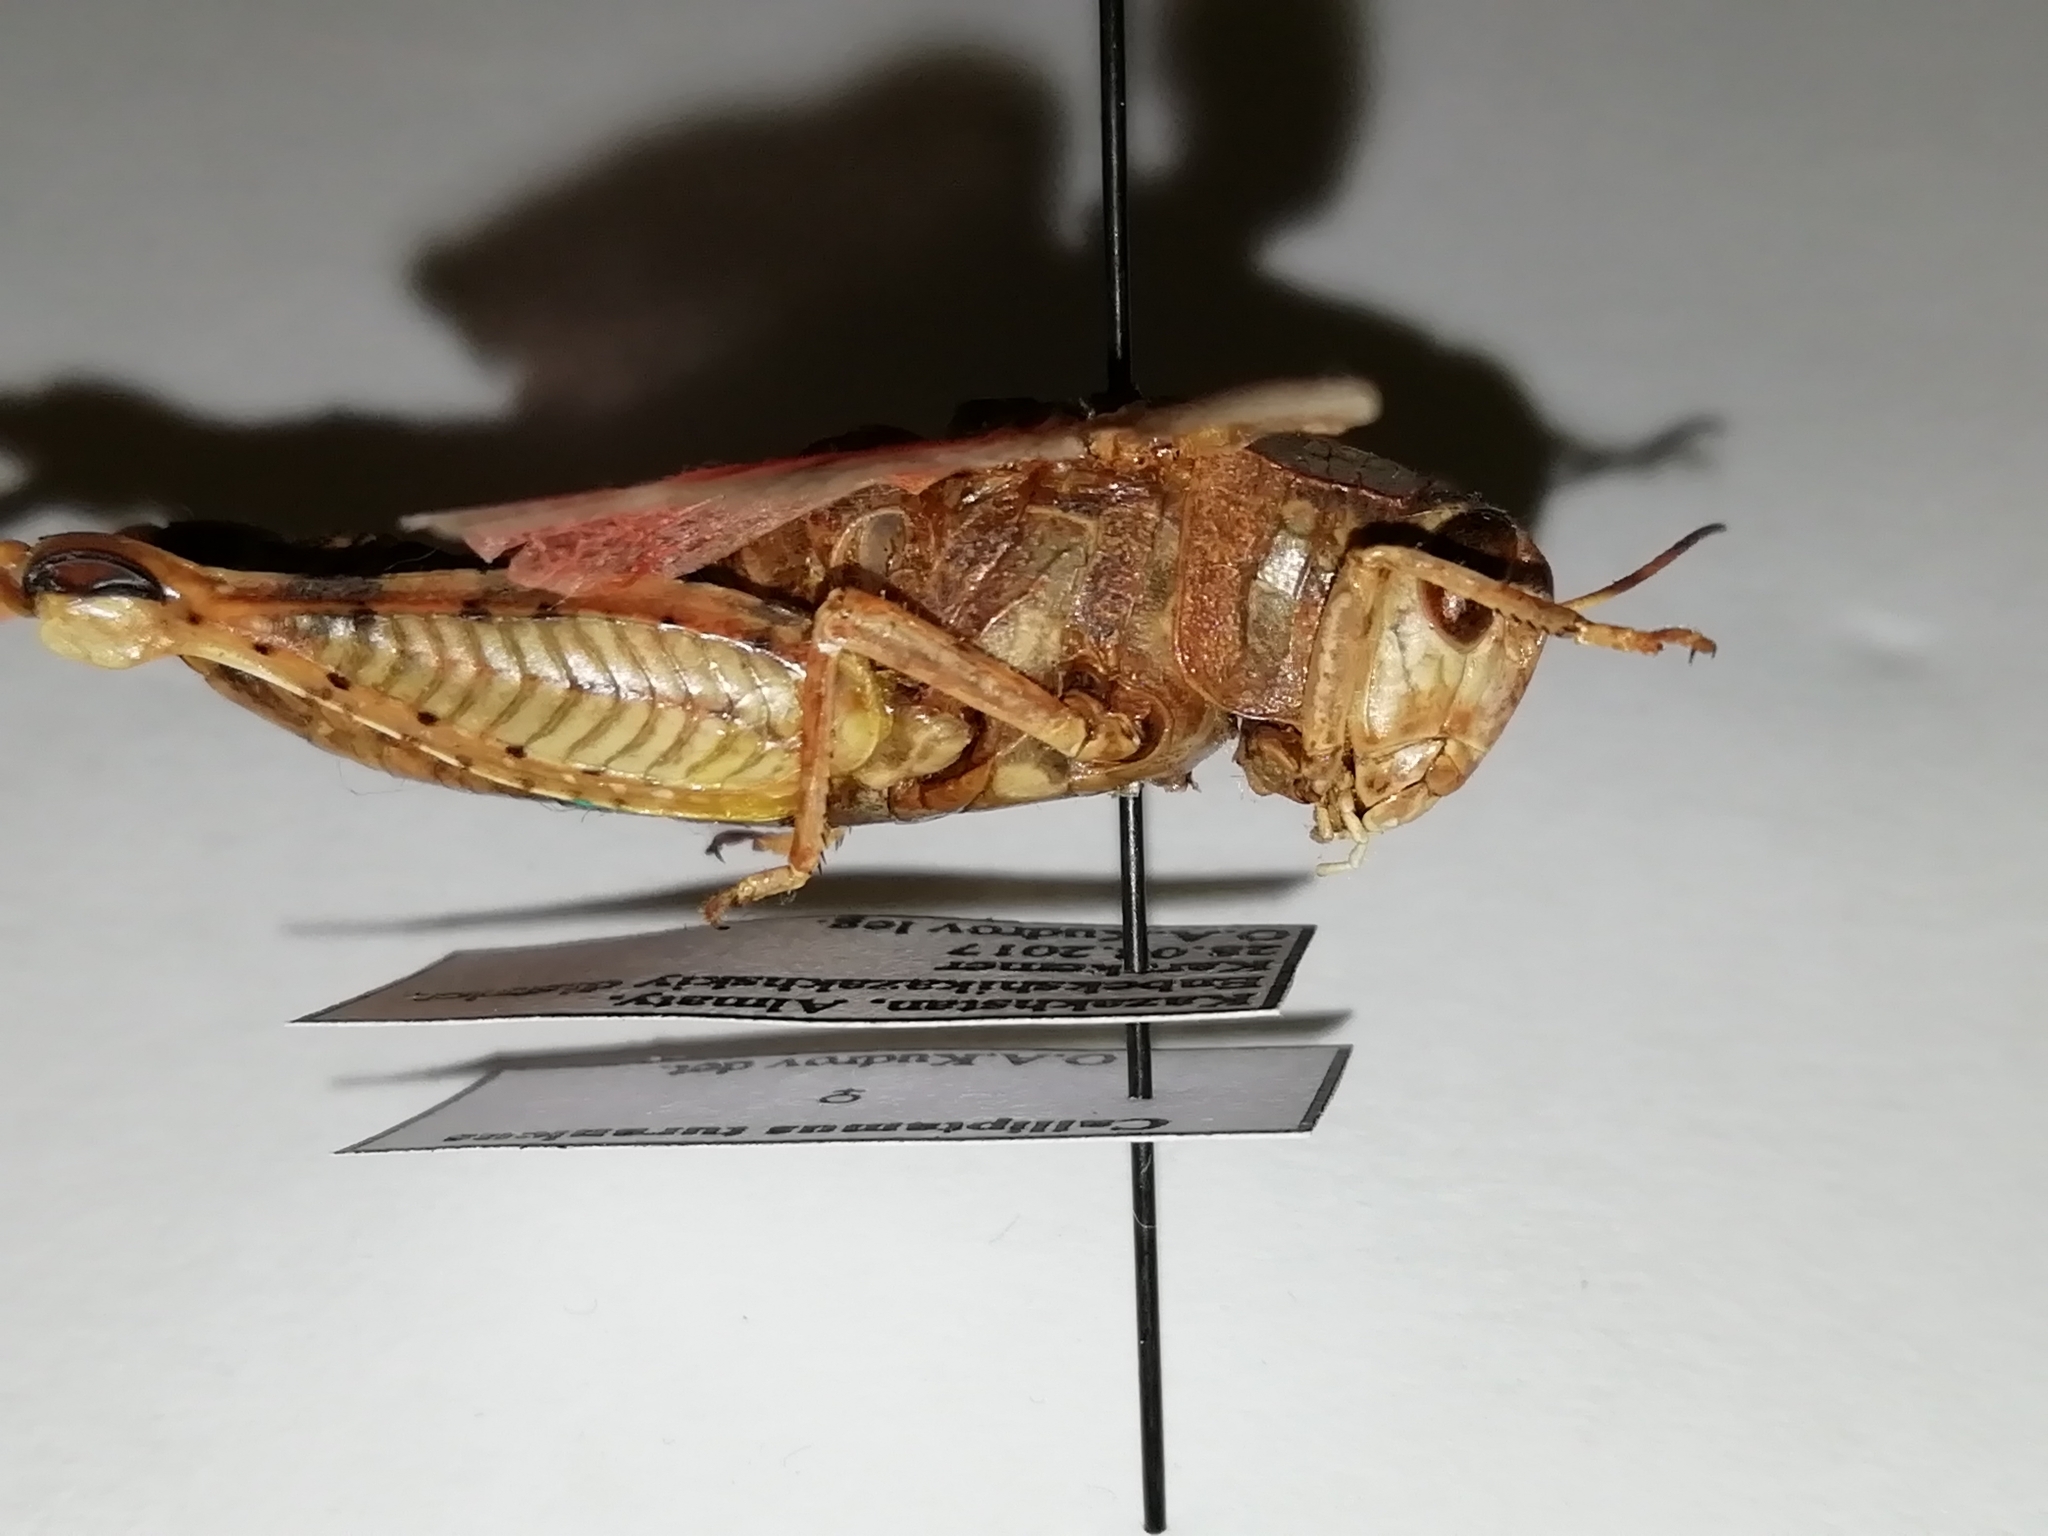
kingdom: Animalia
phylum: Arthropoda
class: Insecta
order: Orthoptera
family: Acrididae
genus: Calliptamus
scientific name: Calliptamus italicus
